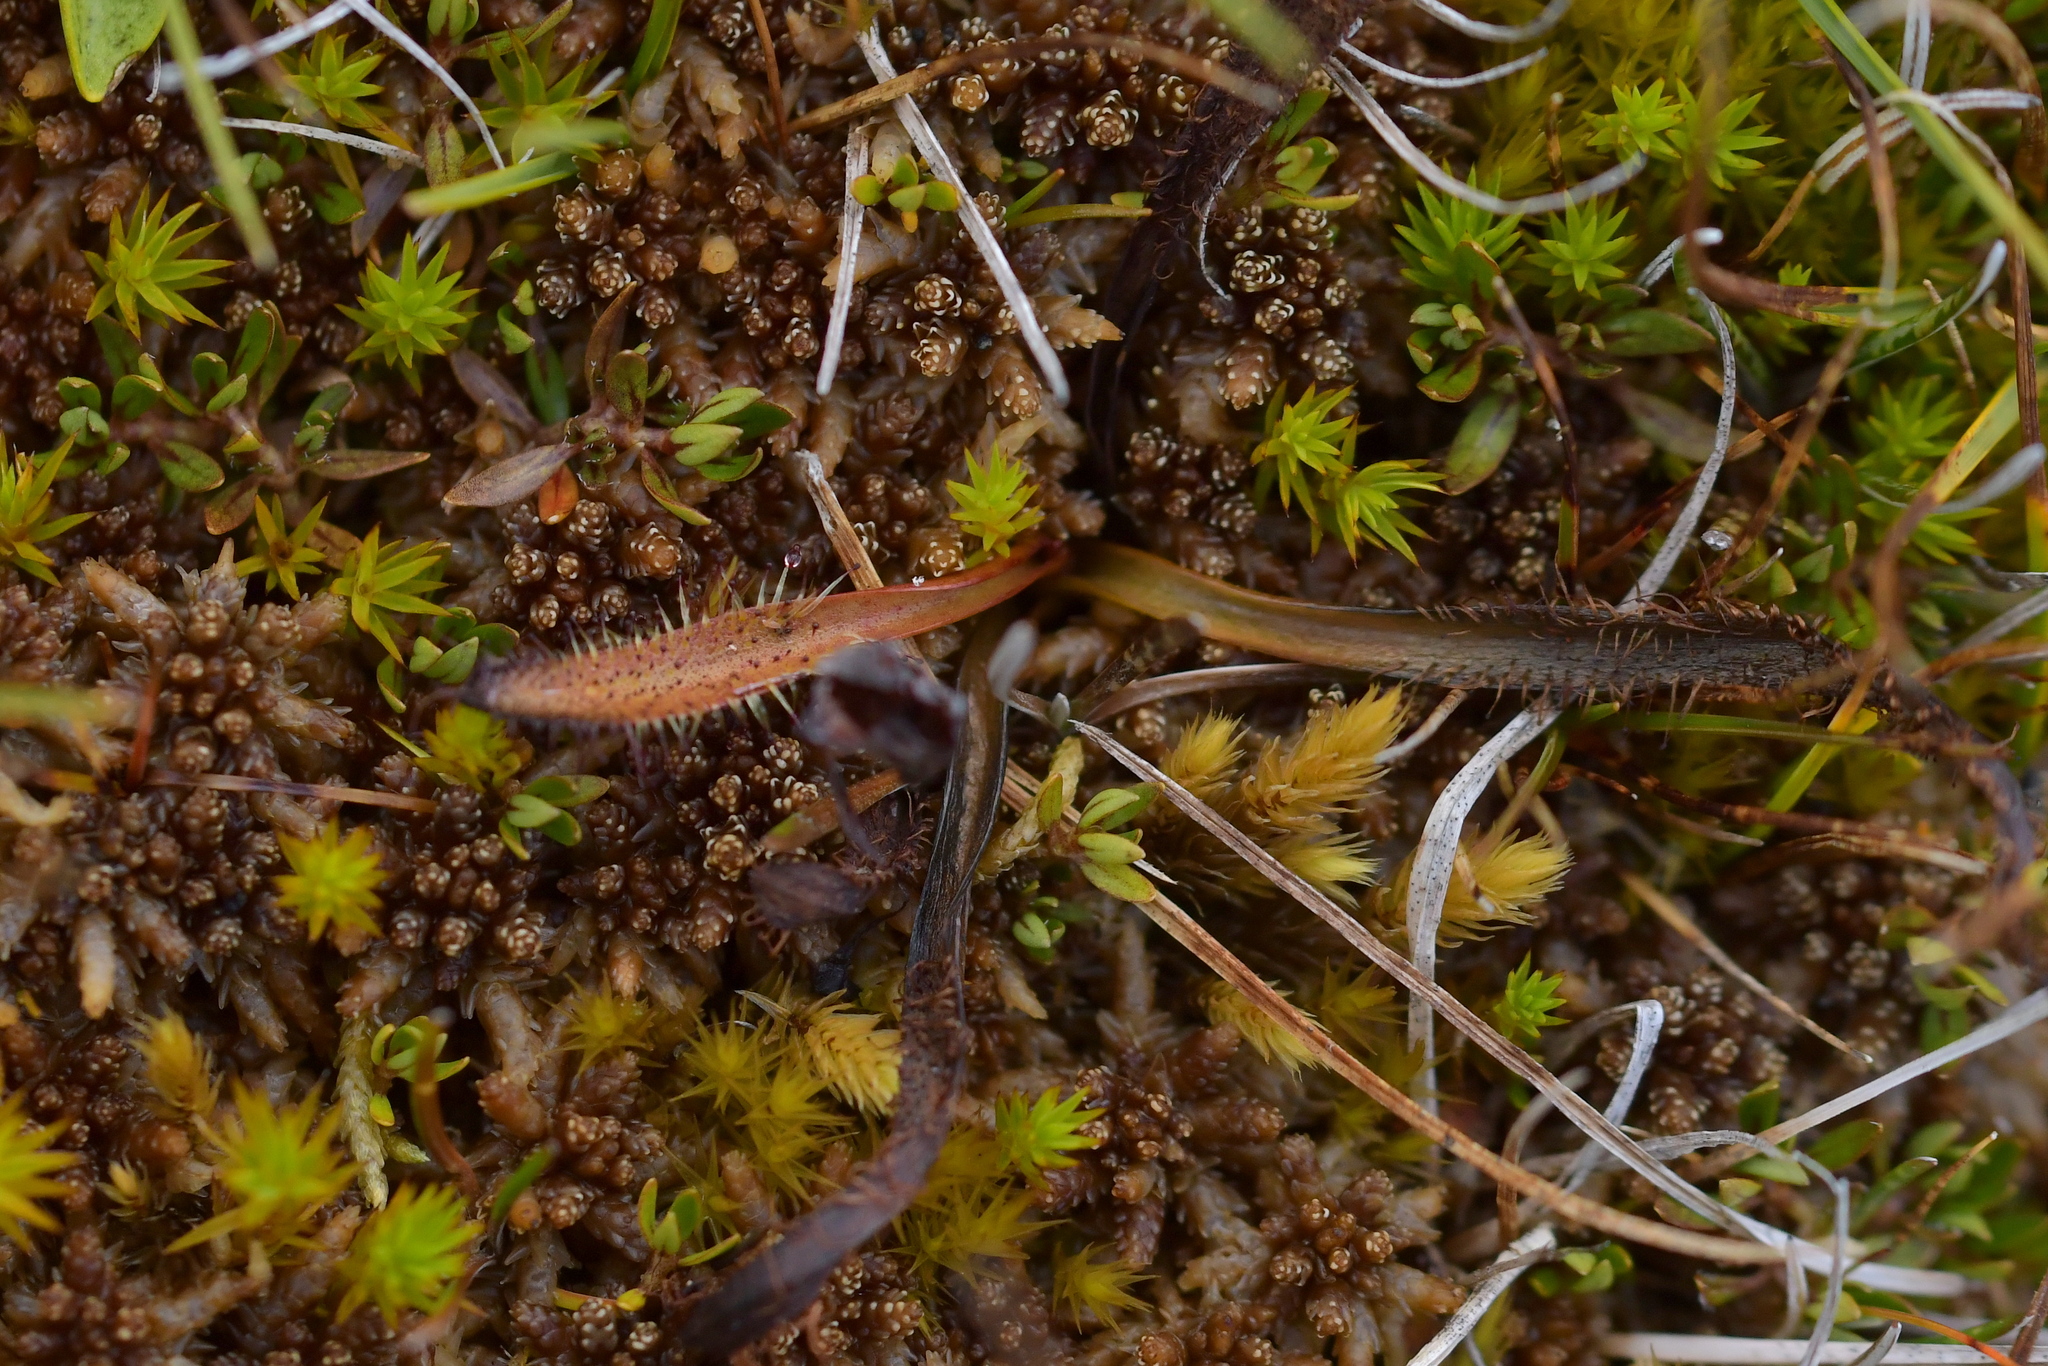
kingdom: Plantae
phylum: Tracheophyta
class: Magnoliopsida
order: Caryophyllales
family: Droseraceae
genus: Drosera
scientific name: Drosera arcturi
